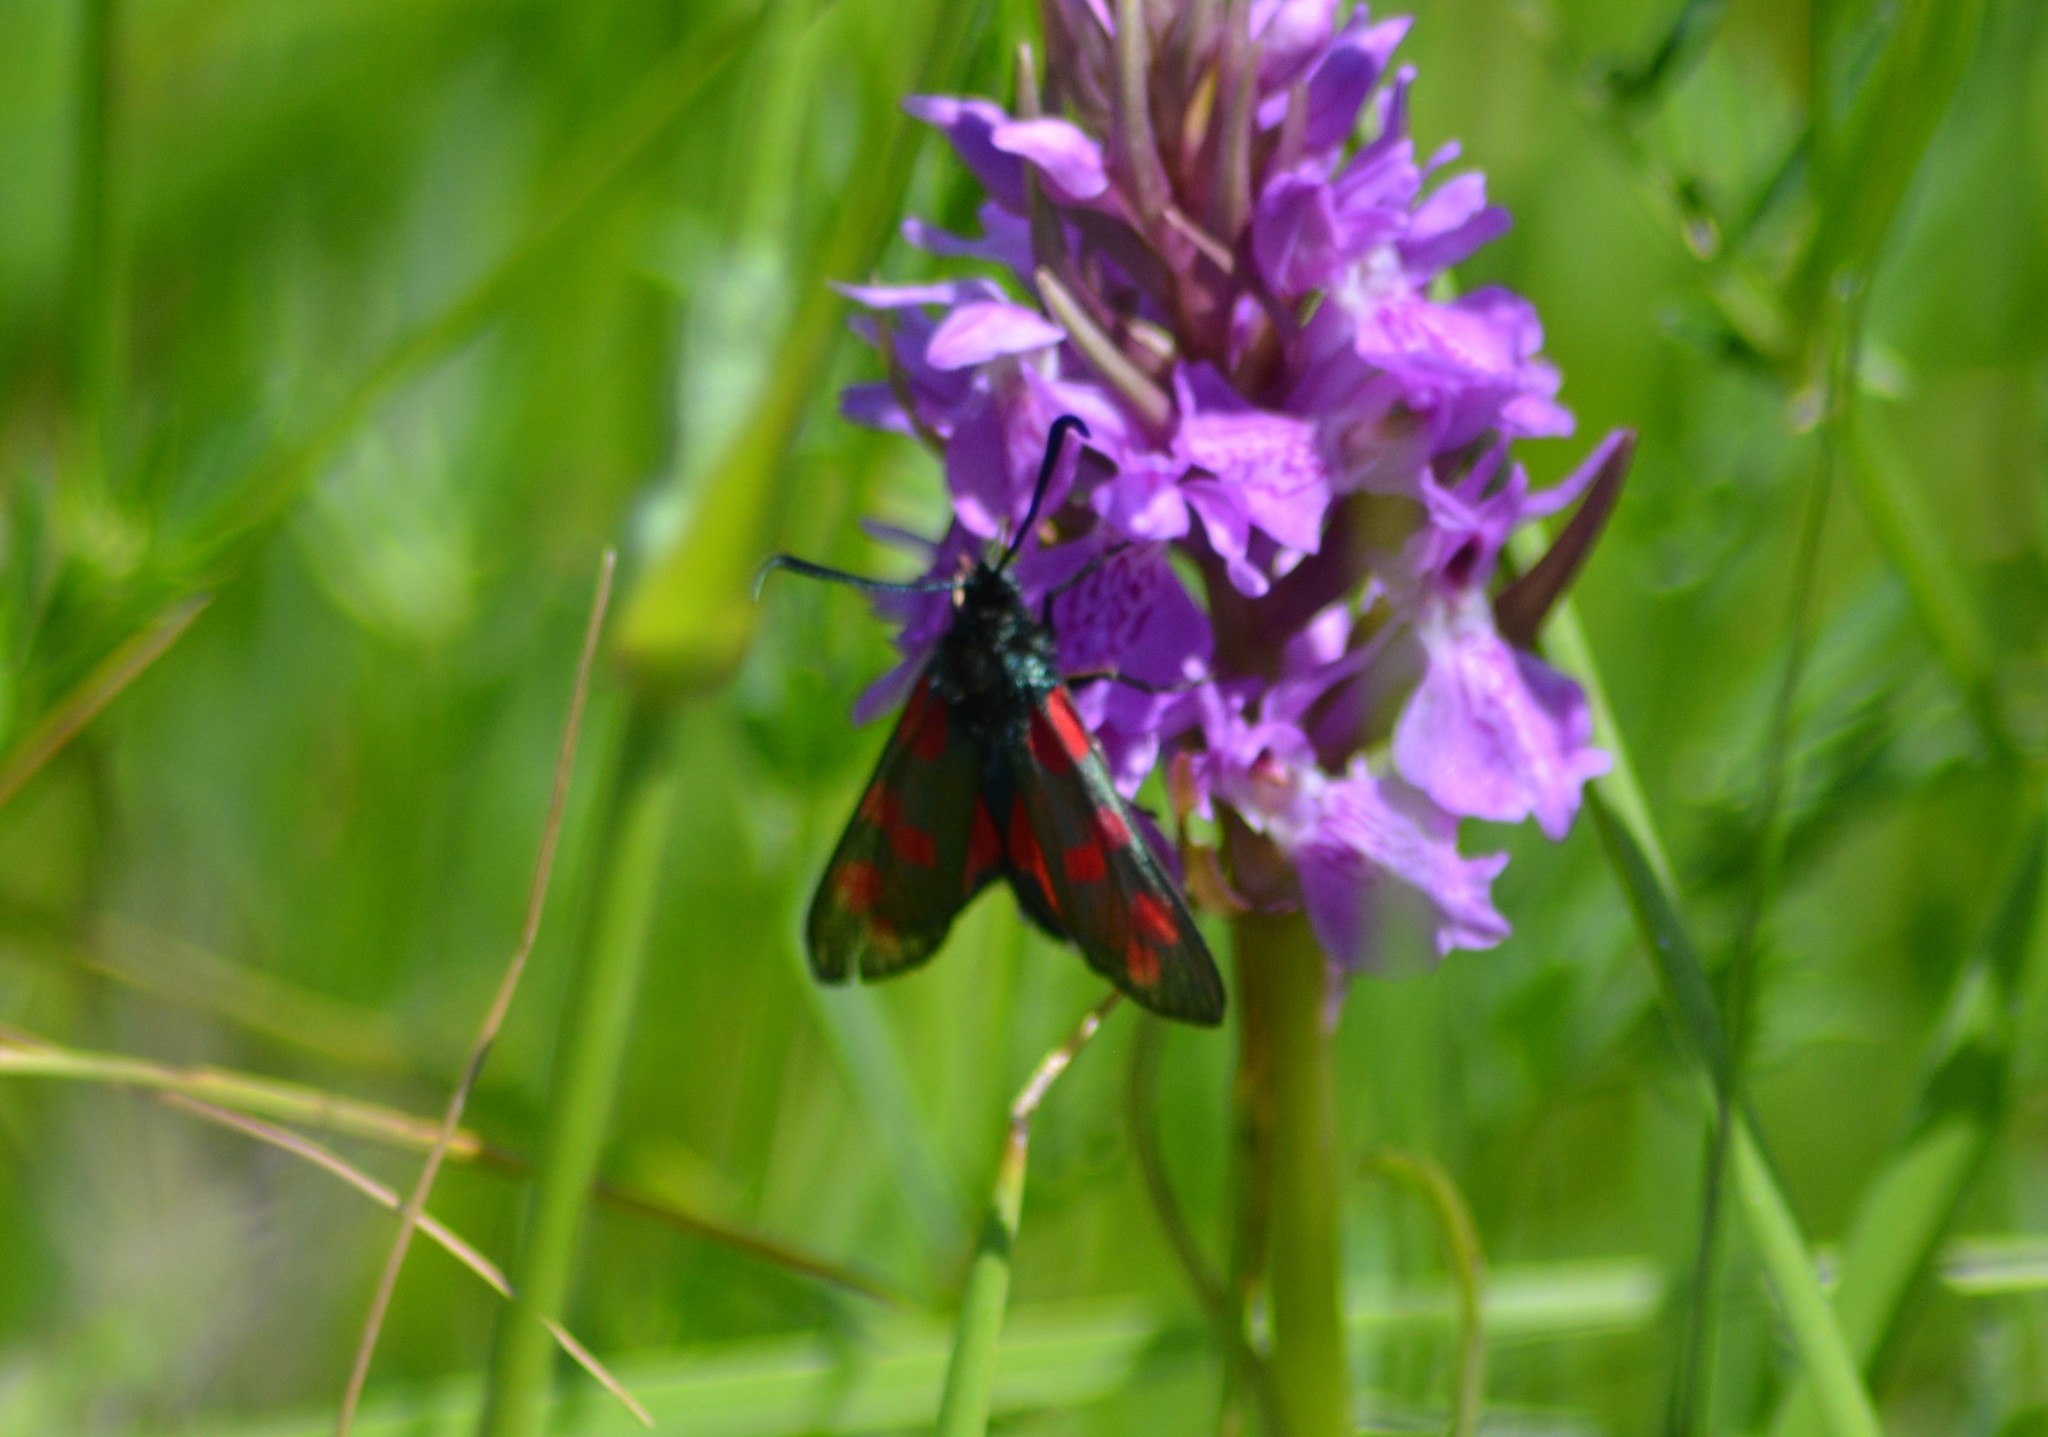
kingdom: Animalia
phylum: Arthropoda
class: Insecta
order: Lepidoptera
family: Zygaenidae
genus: Zygaena
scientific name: Zygaena filipendulae
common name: Six-spot burnet
